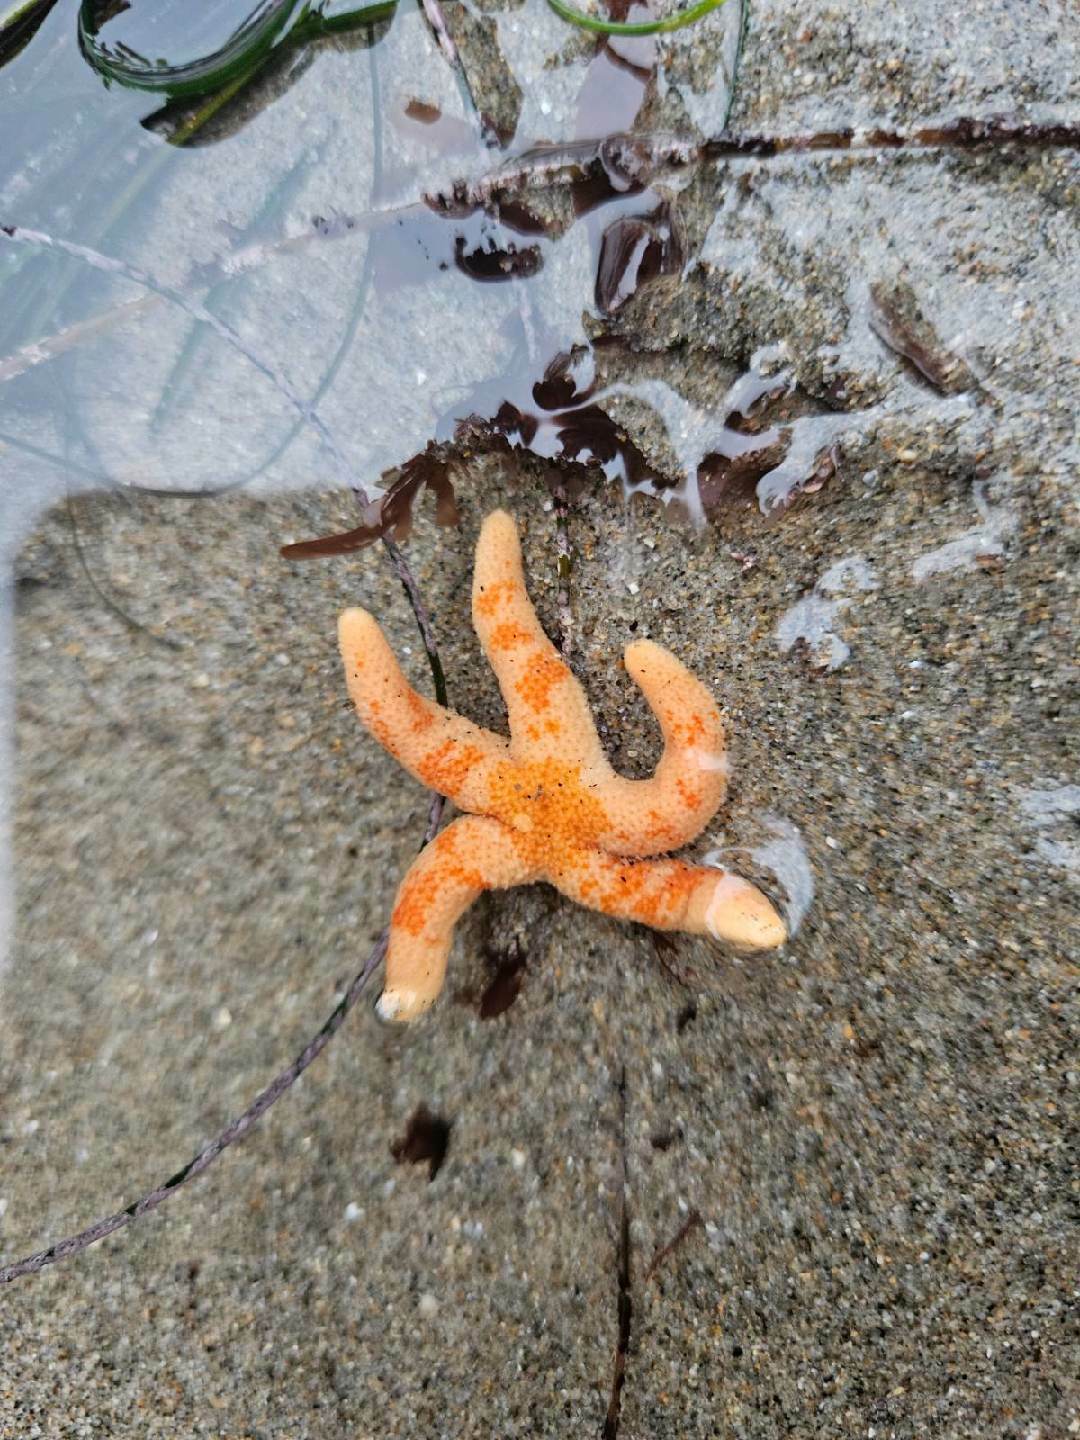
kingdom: Animalia
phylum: Echinodermata
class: Asteroidea
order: Spinulosida
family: Echinasteridae
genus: Henricia
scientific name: Henricia pumila
